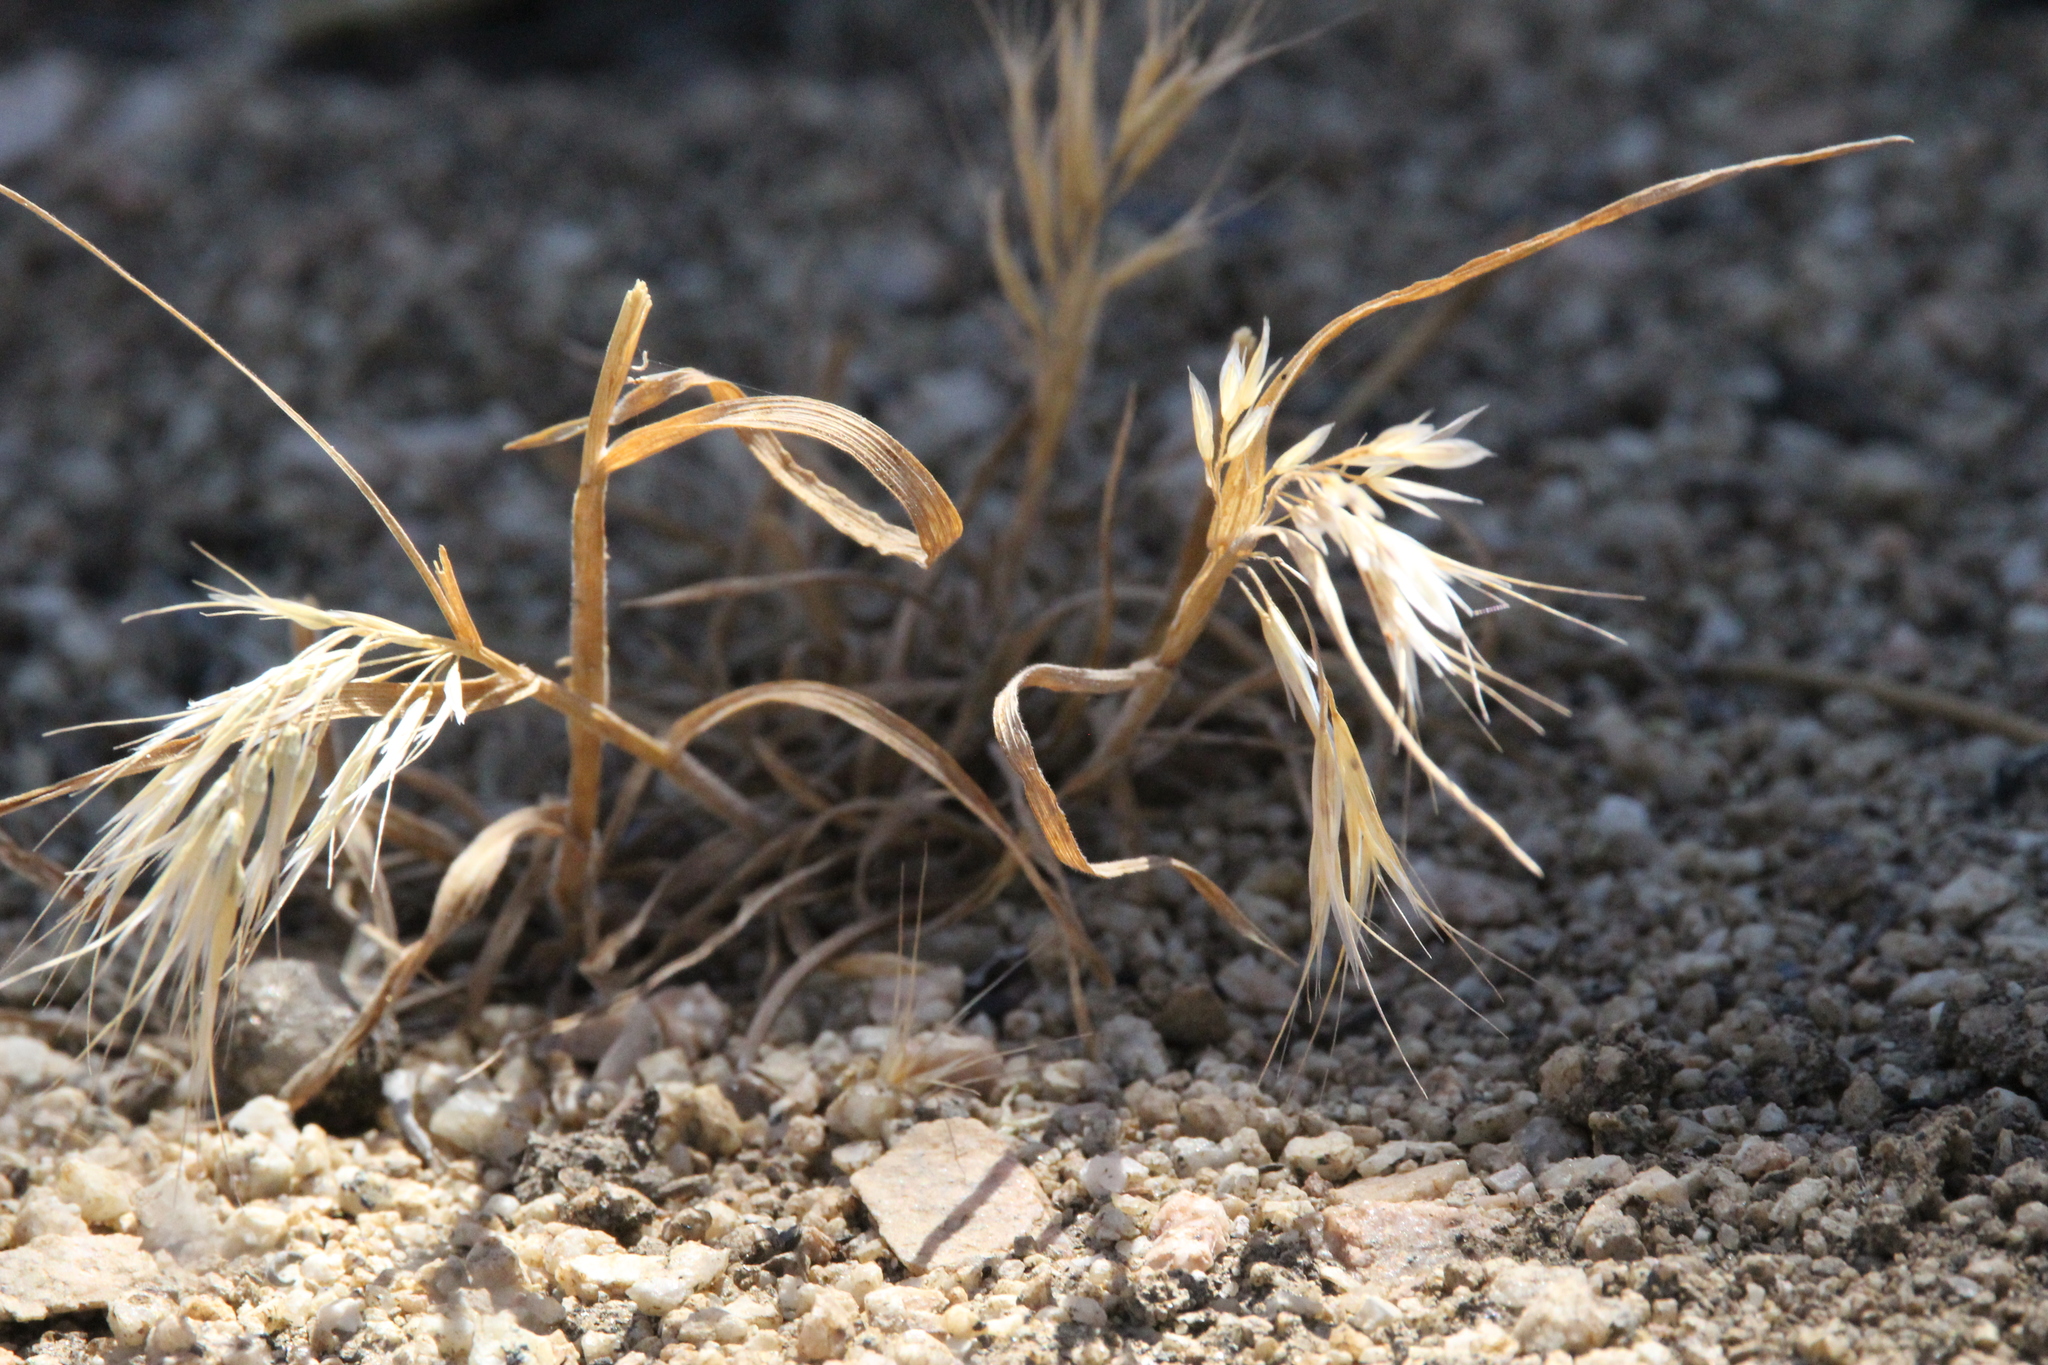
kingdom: Plantae
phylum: Tracheophyta
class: Liliopsida
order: Poales
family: Poaceae
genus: Bromus
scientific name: Bromus tectorum
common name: Cheatgrass
